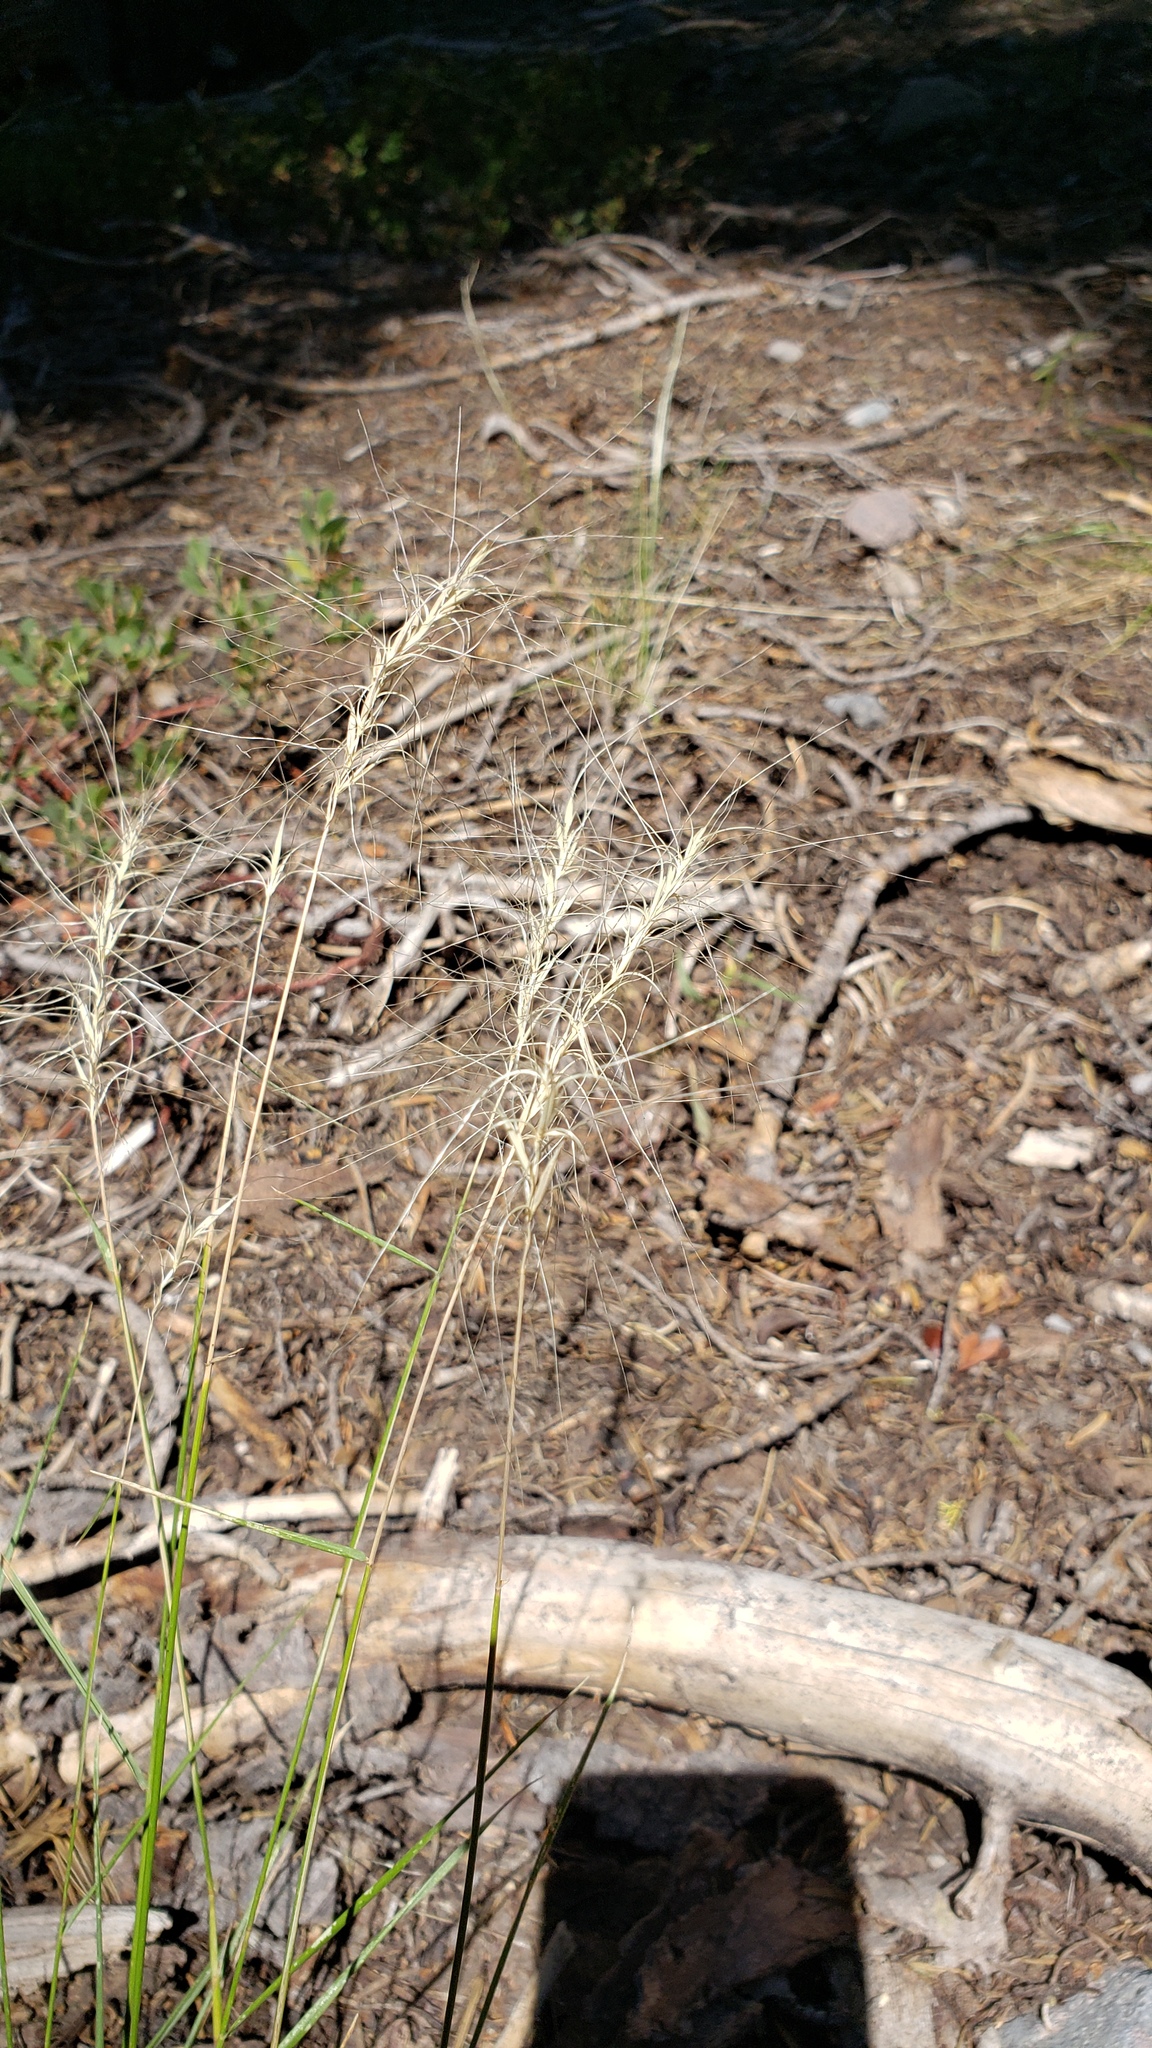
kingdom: Plantae
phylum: Tracheophyta
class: Liliopsida
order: Poales
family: Poaceae
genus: Elymus
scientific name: Elymus elymoides
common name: Bottlebrush squirreltail
